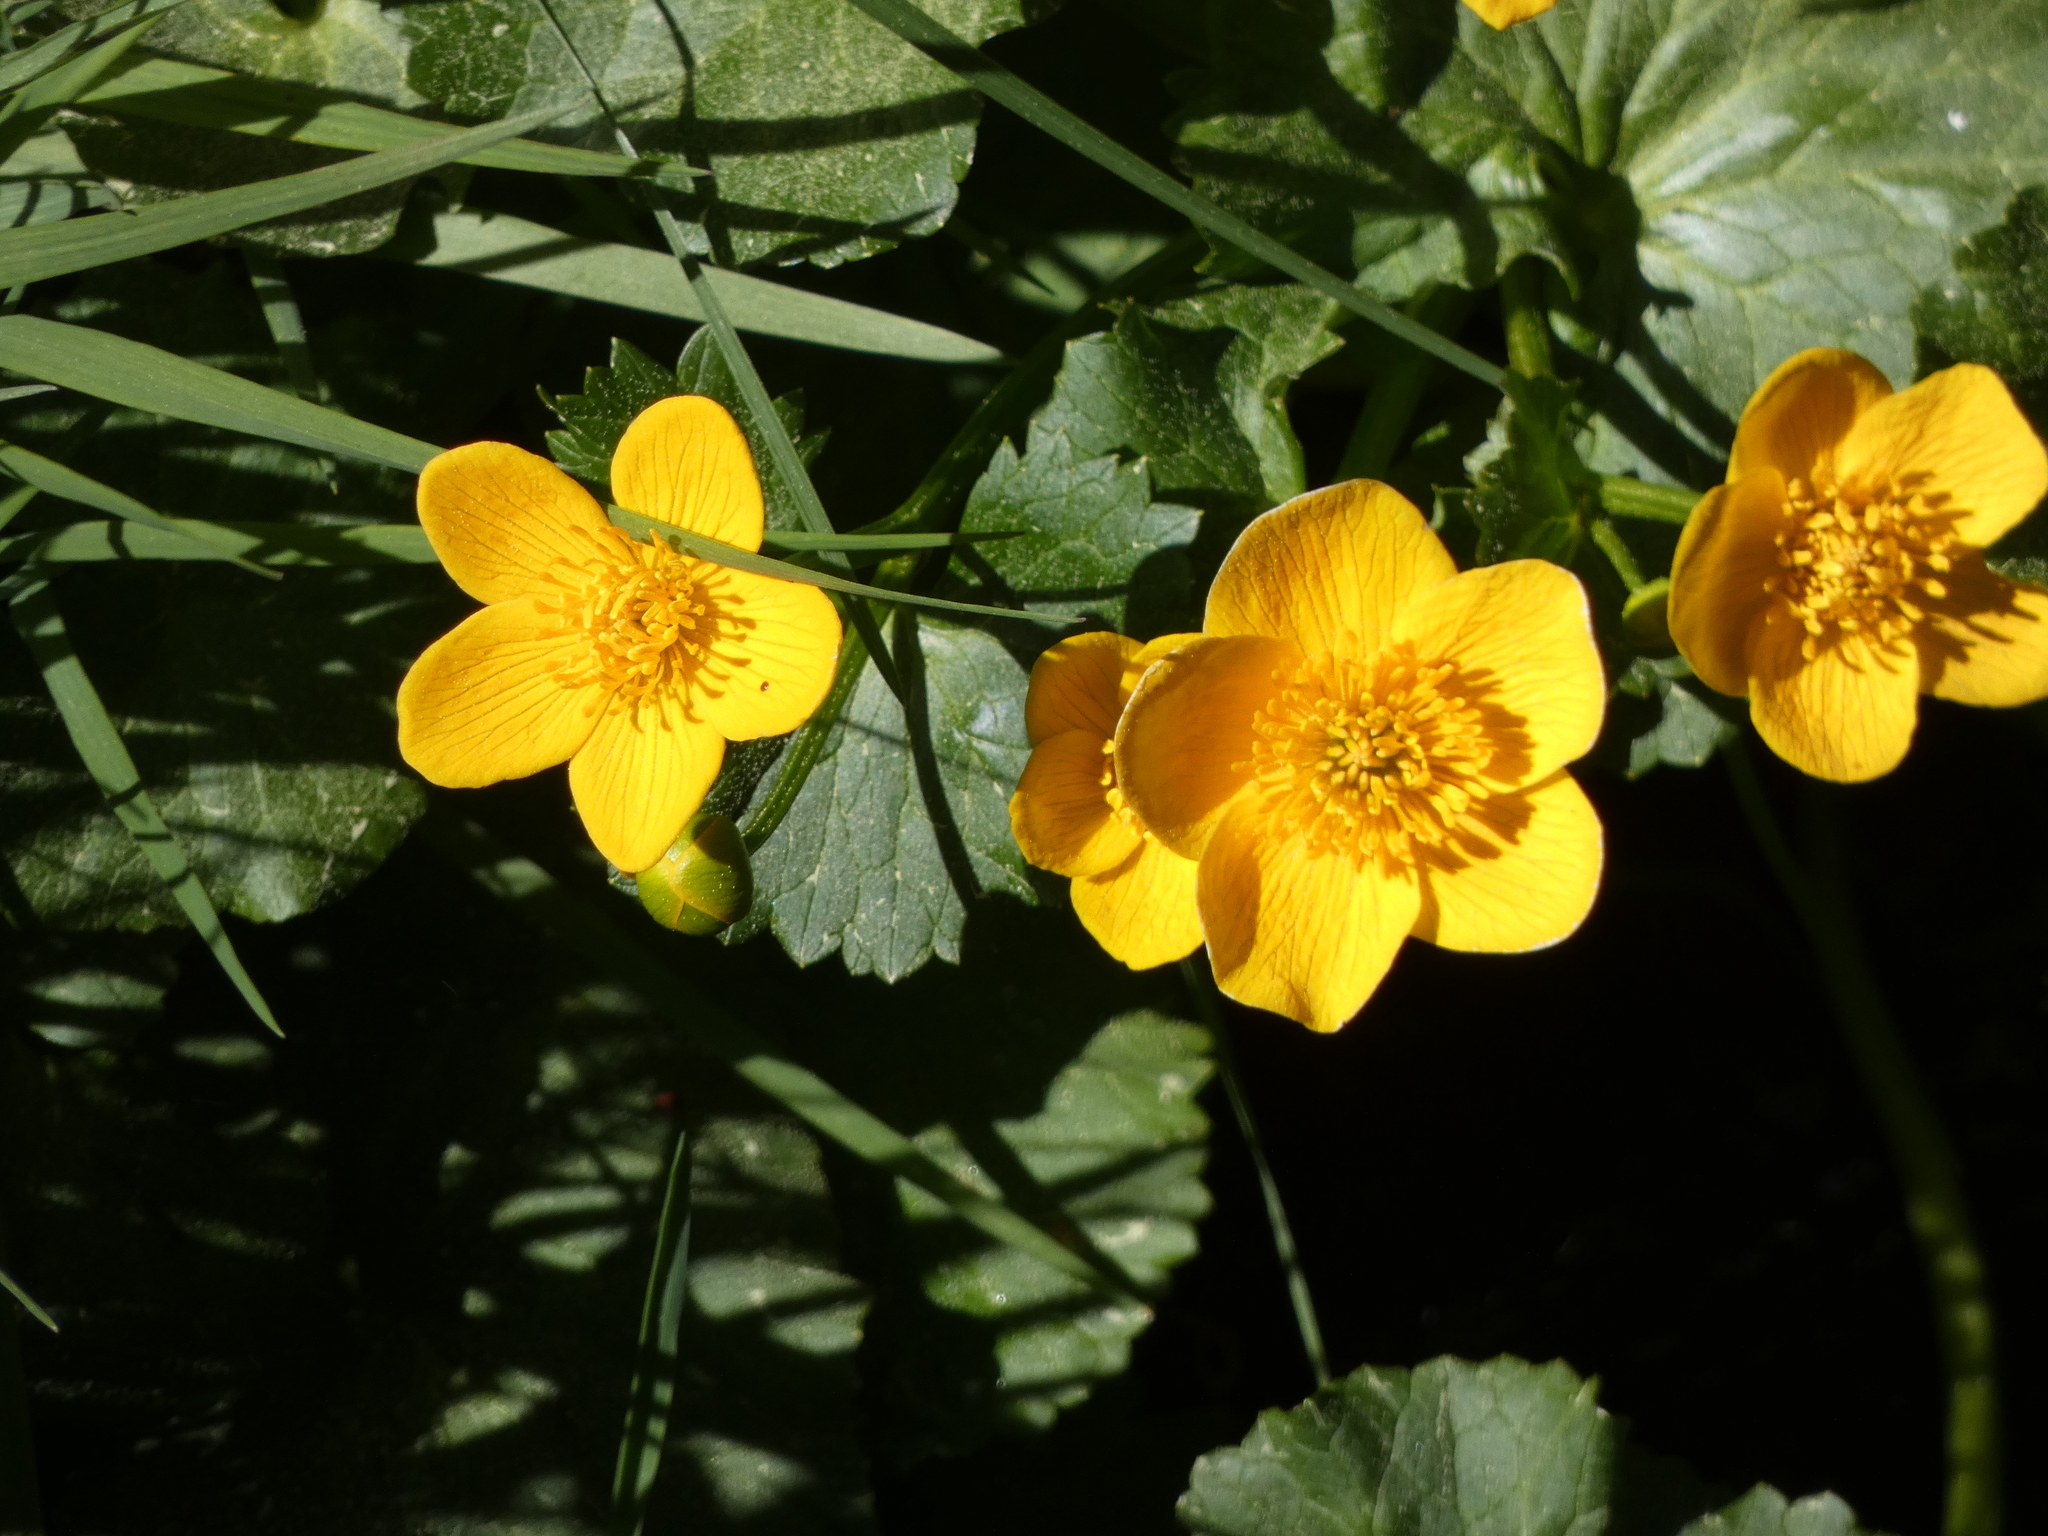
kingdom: Plantae
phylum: Tracheophyta
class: Magnoliopsida
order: Ranunculales
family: Ranunculaceae
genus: Caltha
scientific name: Caltha palustris
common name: Marsh marigold
